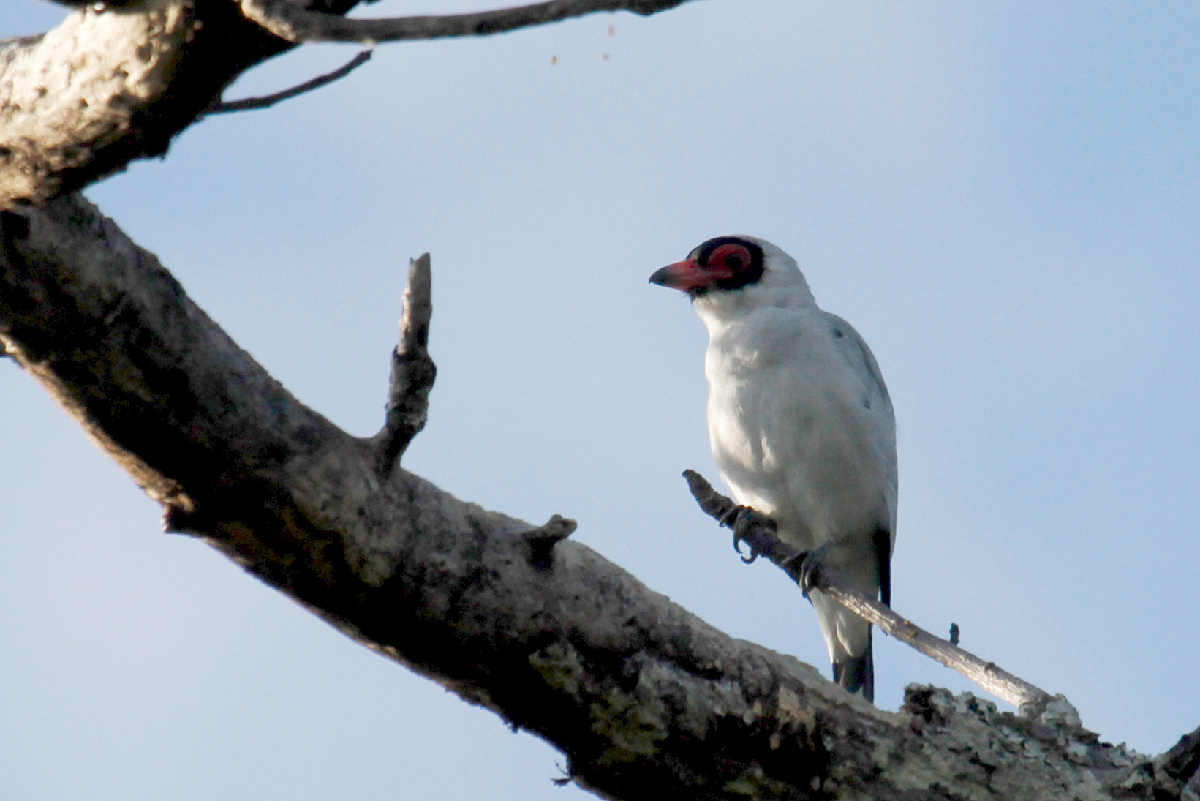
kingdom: Animalia
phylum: Chordata
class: Aves
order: Passeriformes
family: Cotingidae
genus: Tityra
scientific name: Tityra semifasciata
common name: Masked tityra
